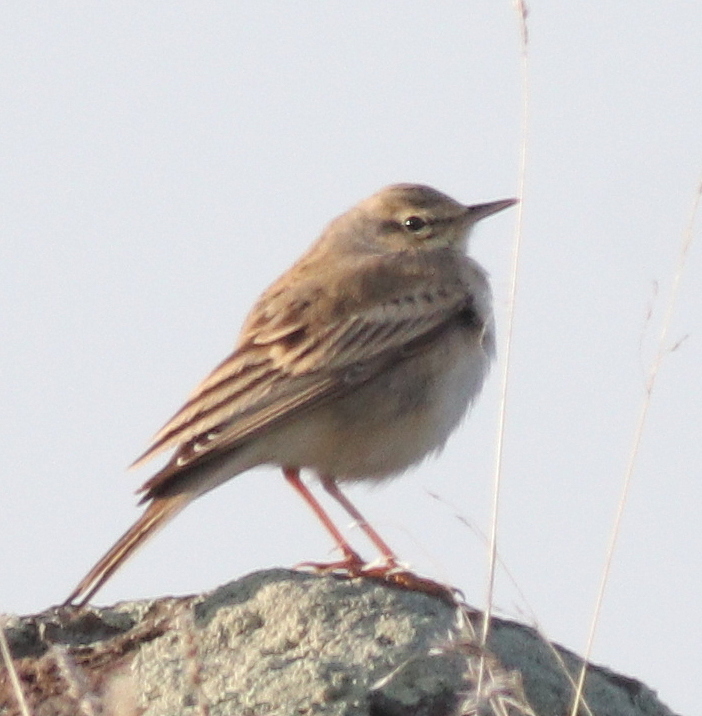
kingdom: Animalia
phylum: Chordata
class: Aves
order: Passeriformes
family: Motacillidae
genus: Anthus
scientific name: Anthus campestris
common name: Tawny pipit
